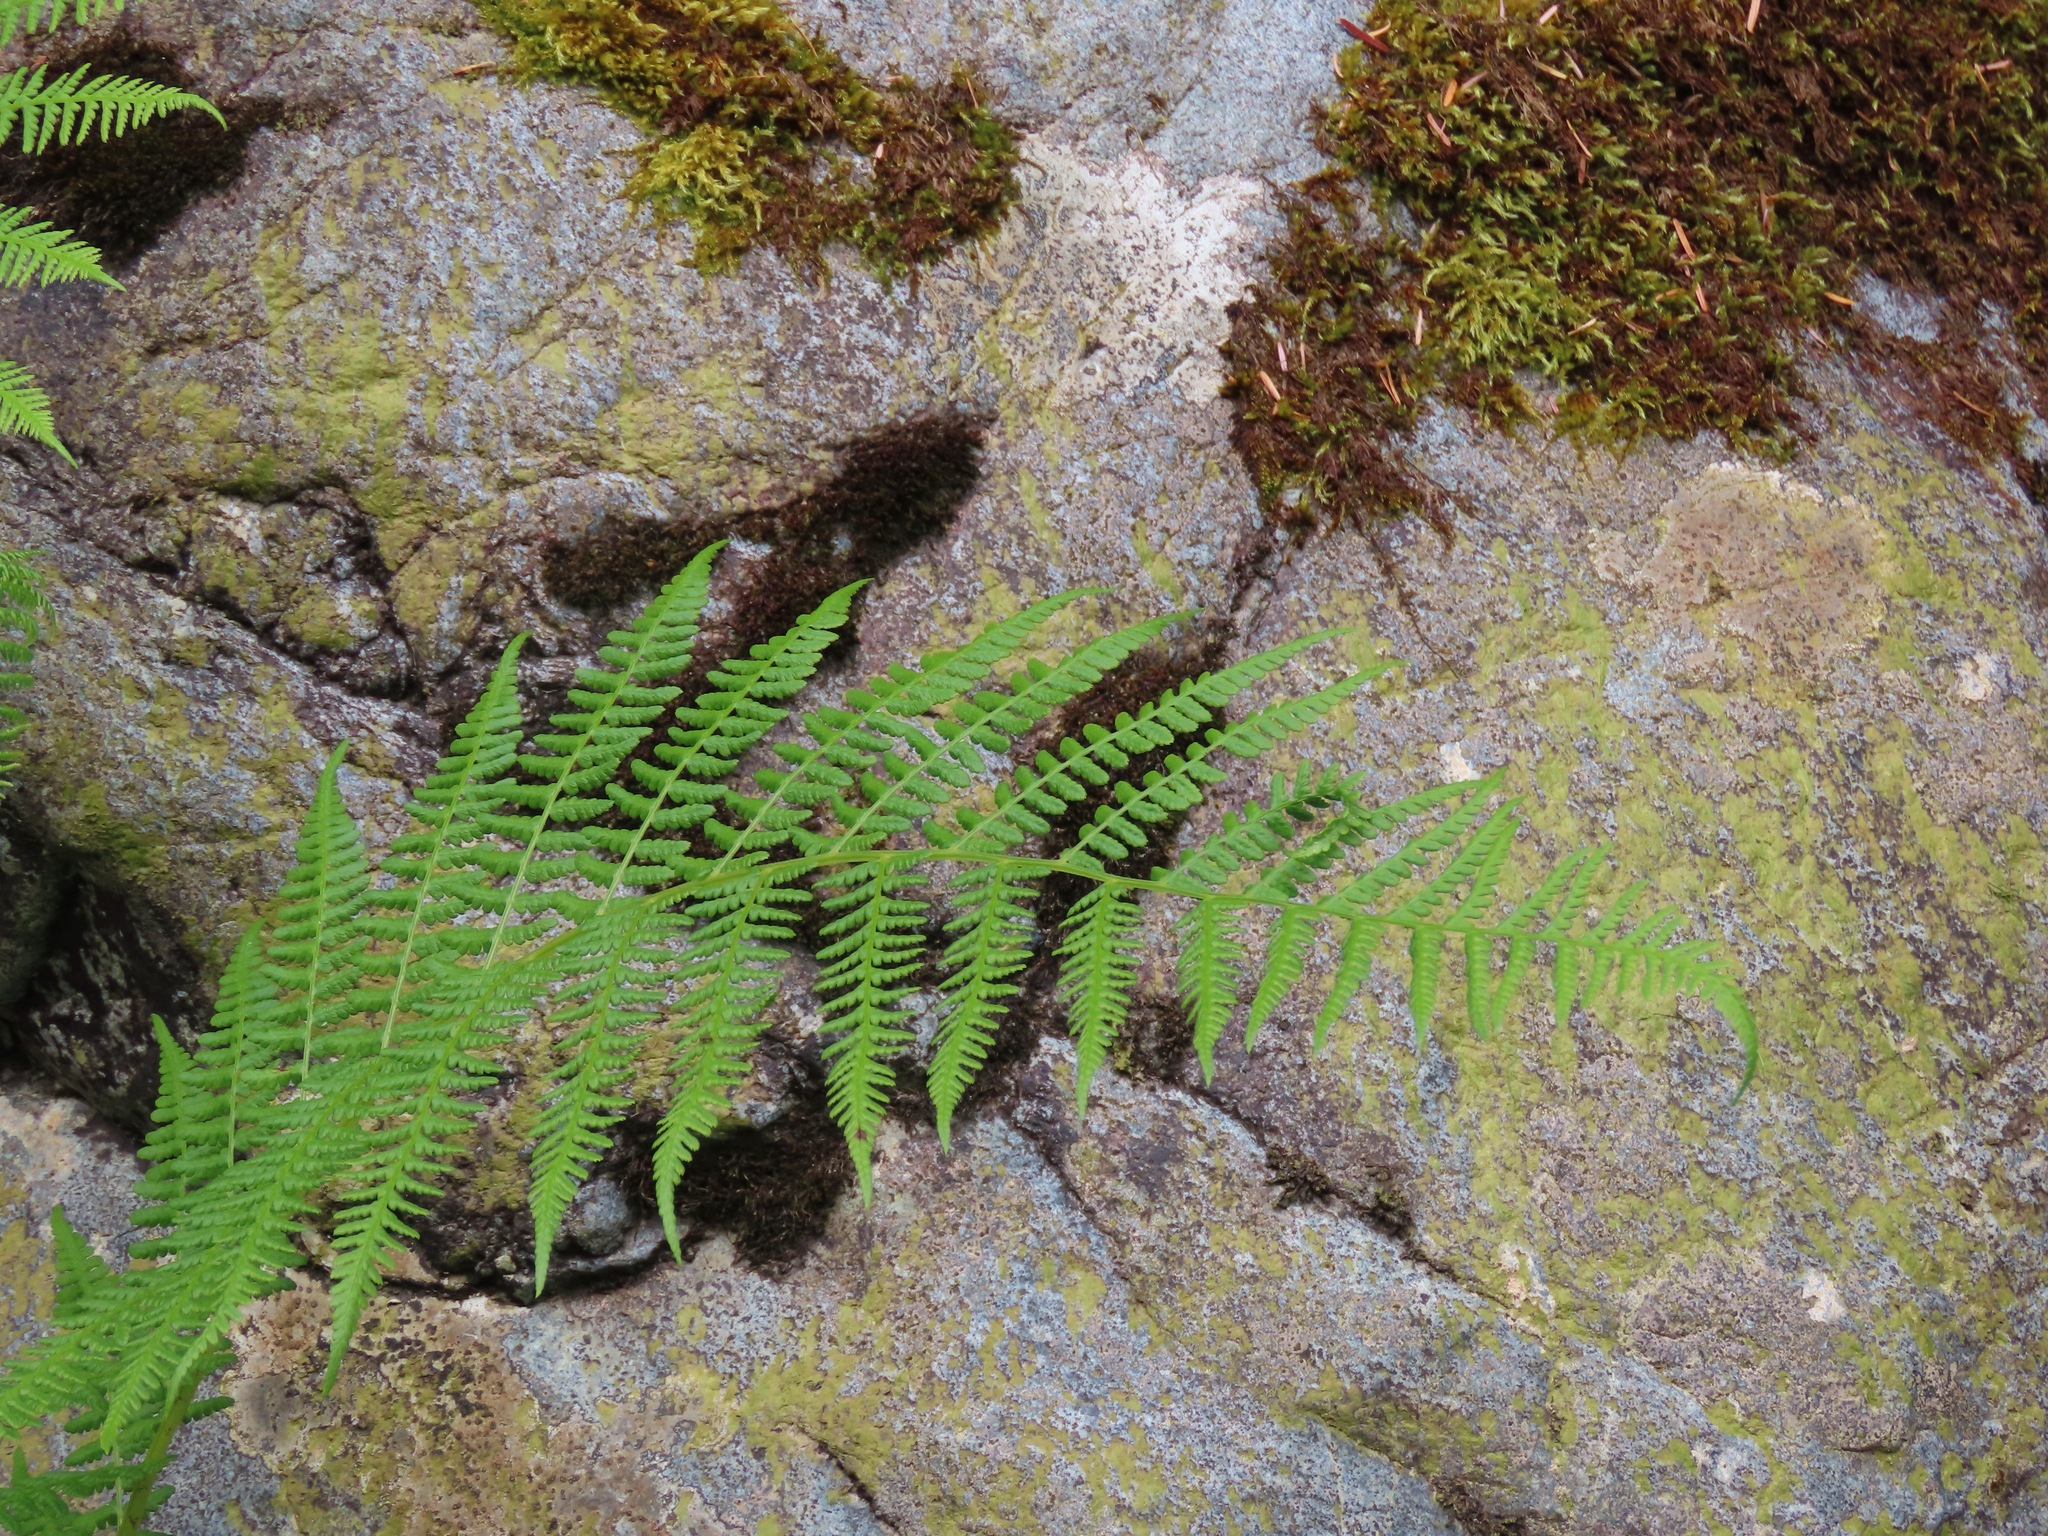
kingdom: Plantae
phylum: Tracheophyta
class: Polypodiopsida
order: Polypodiales
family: Athyriaceae
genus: Athyrium
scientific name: Athyrium filix-femina
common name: Lady fern
